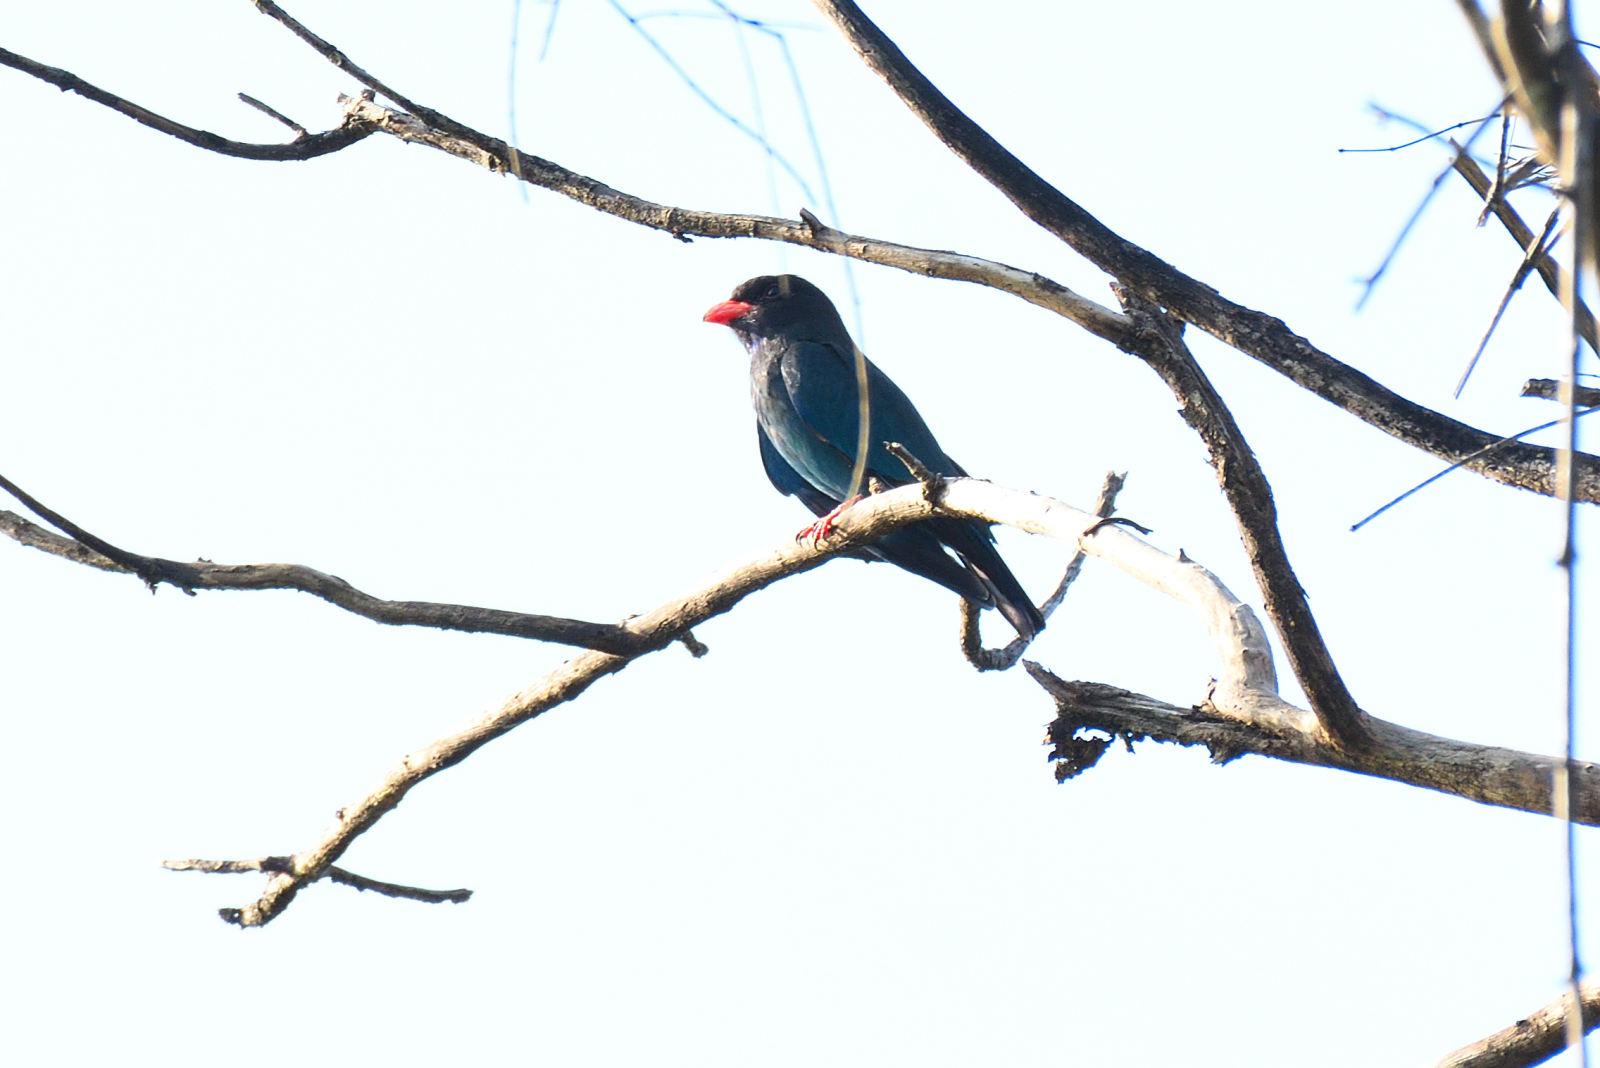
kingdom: Animalia
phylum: Chordata
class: Aves
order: Coraciiformes
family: Coraciidae
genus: Eurystomus
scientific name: Eurystomus orientalis
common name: Oriental dollarbird
